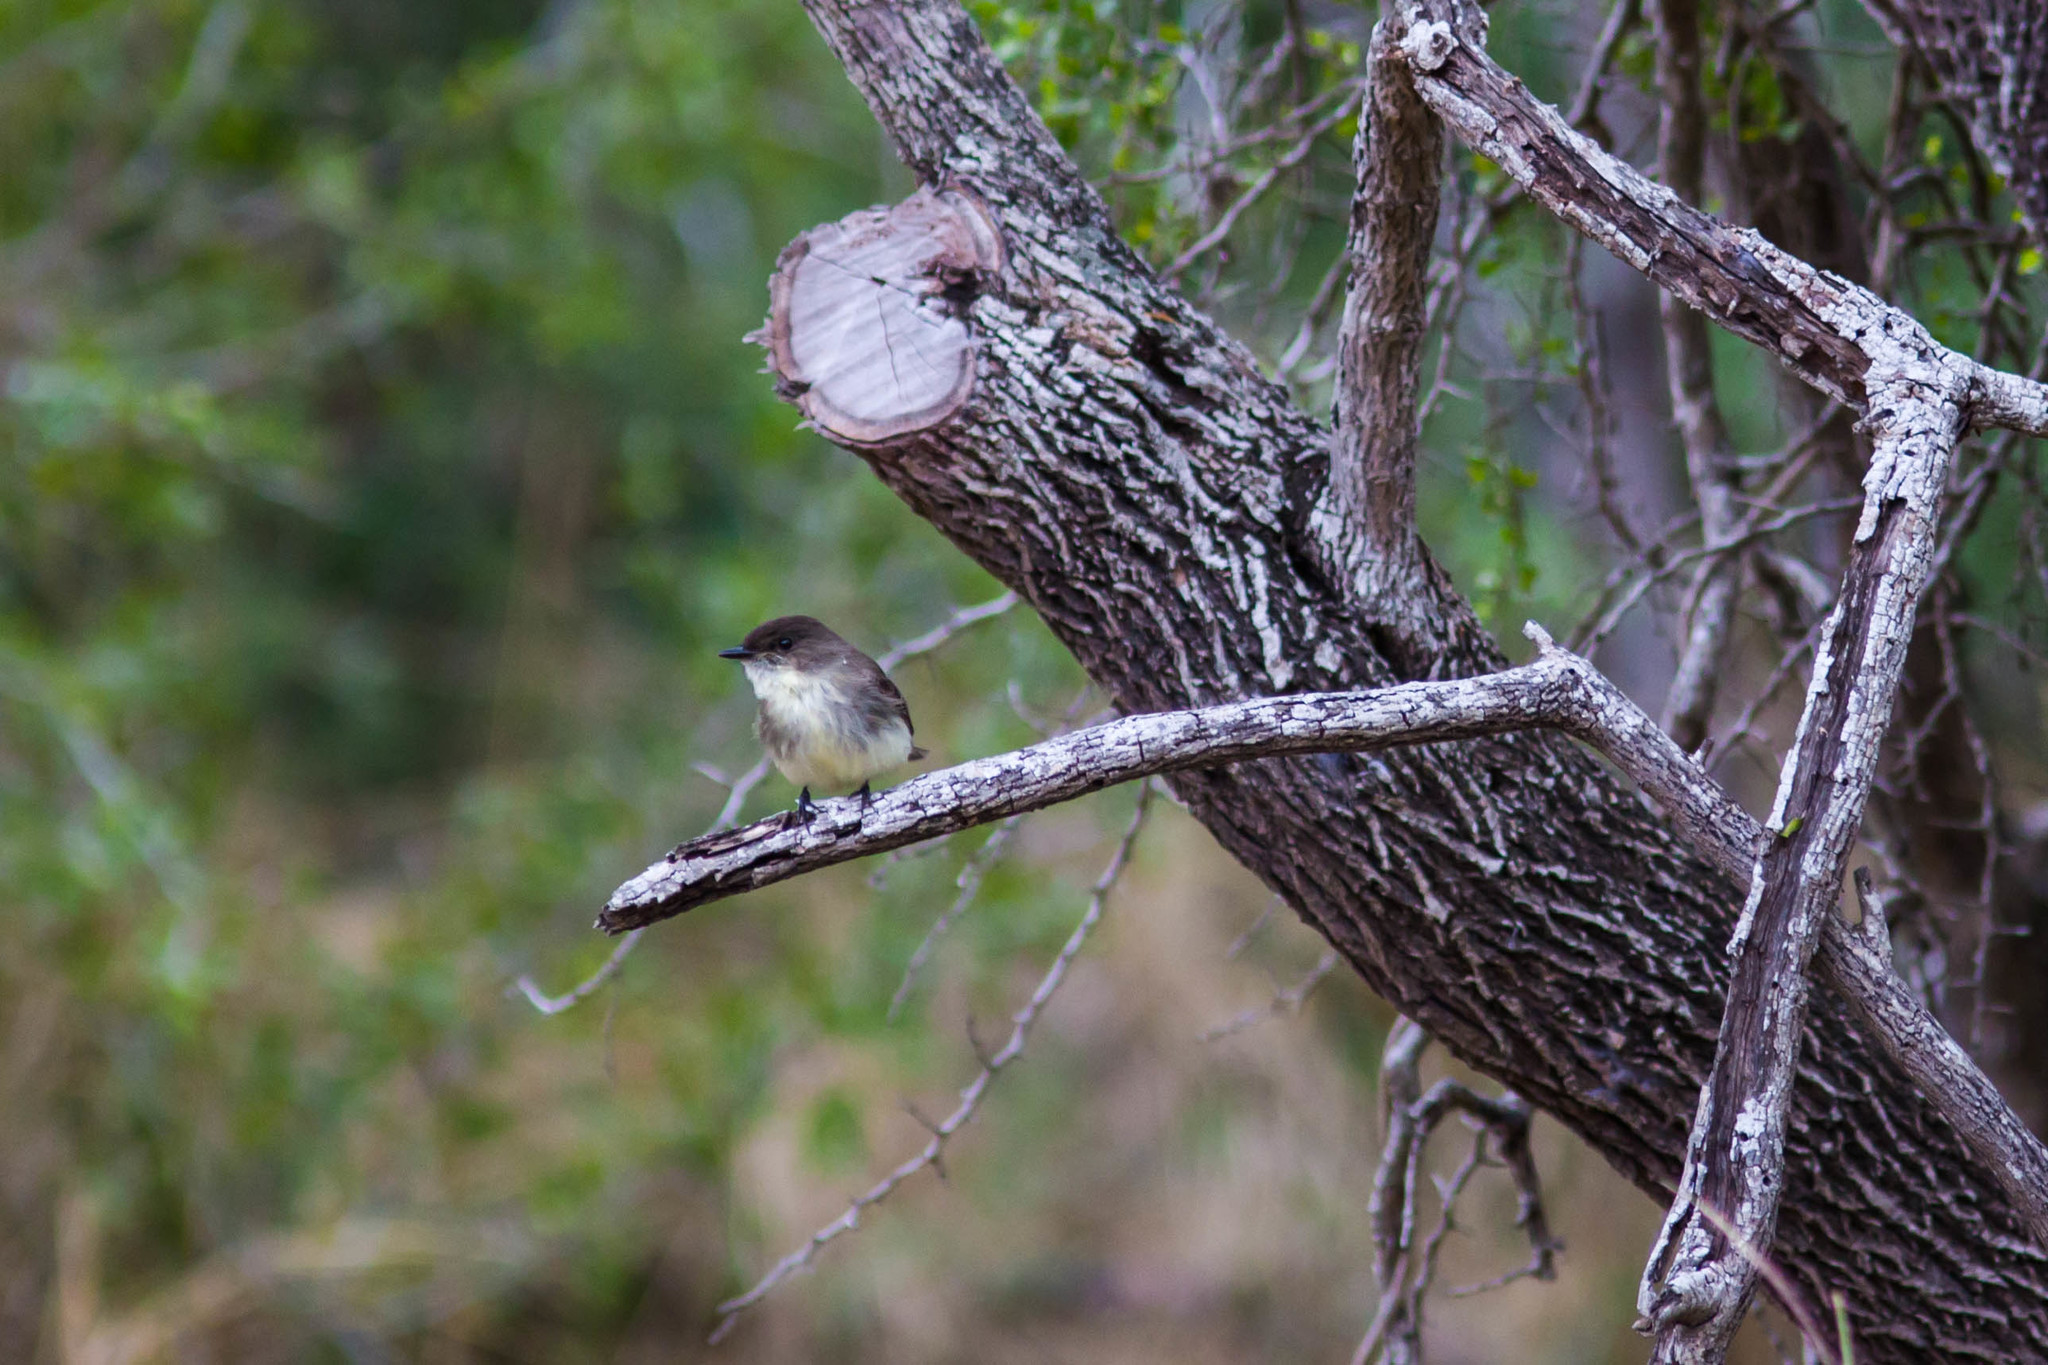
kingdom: Animalia
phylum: Chordata
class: Aves
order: Passeriformes
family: Tyrannidae
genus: Sayornis
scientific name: Sayornis phoebe
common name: Eastern phoebe
